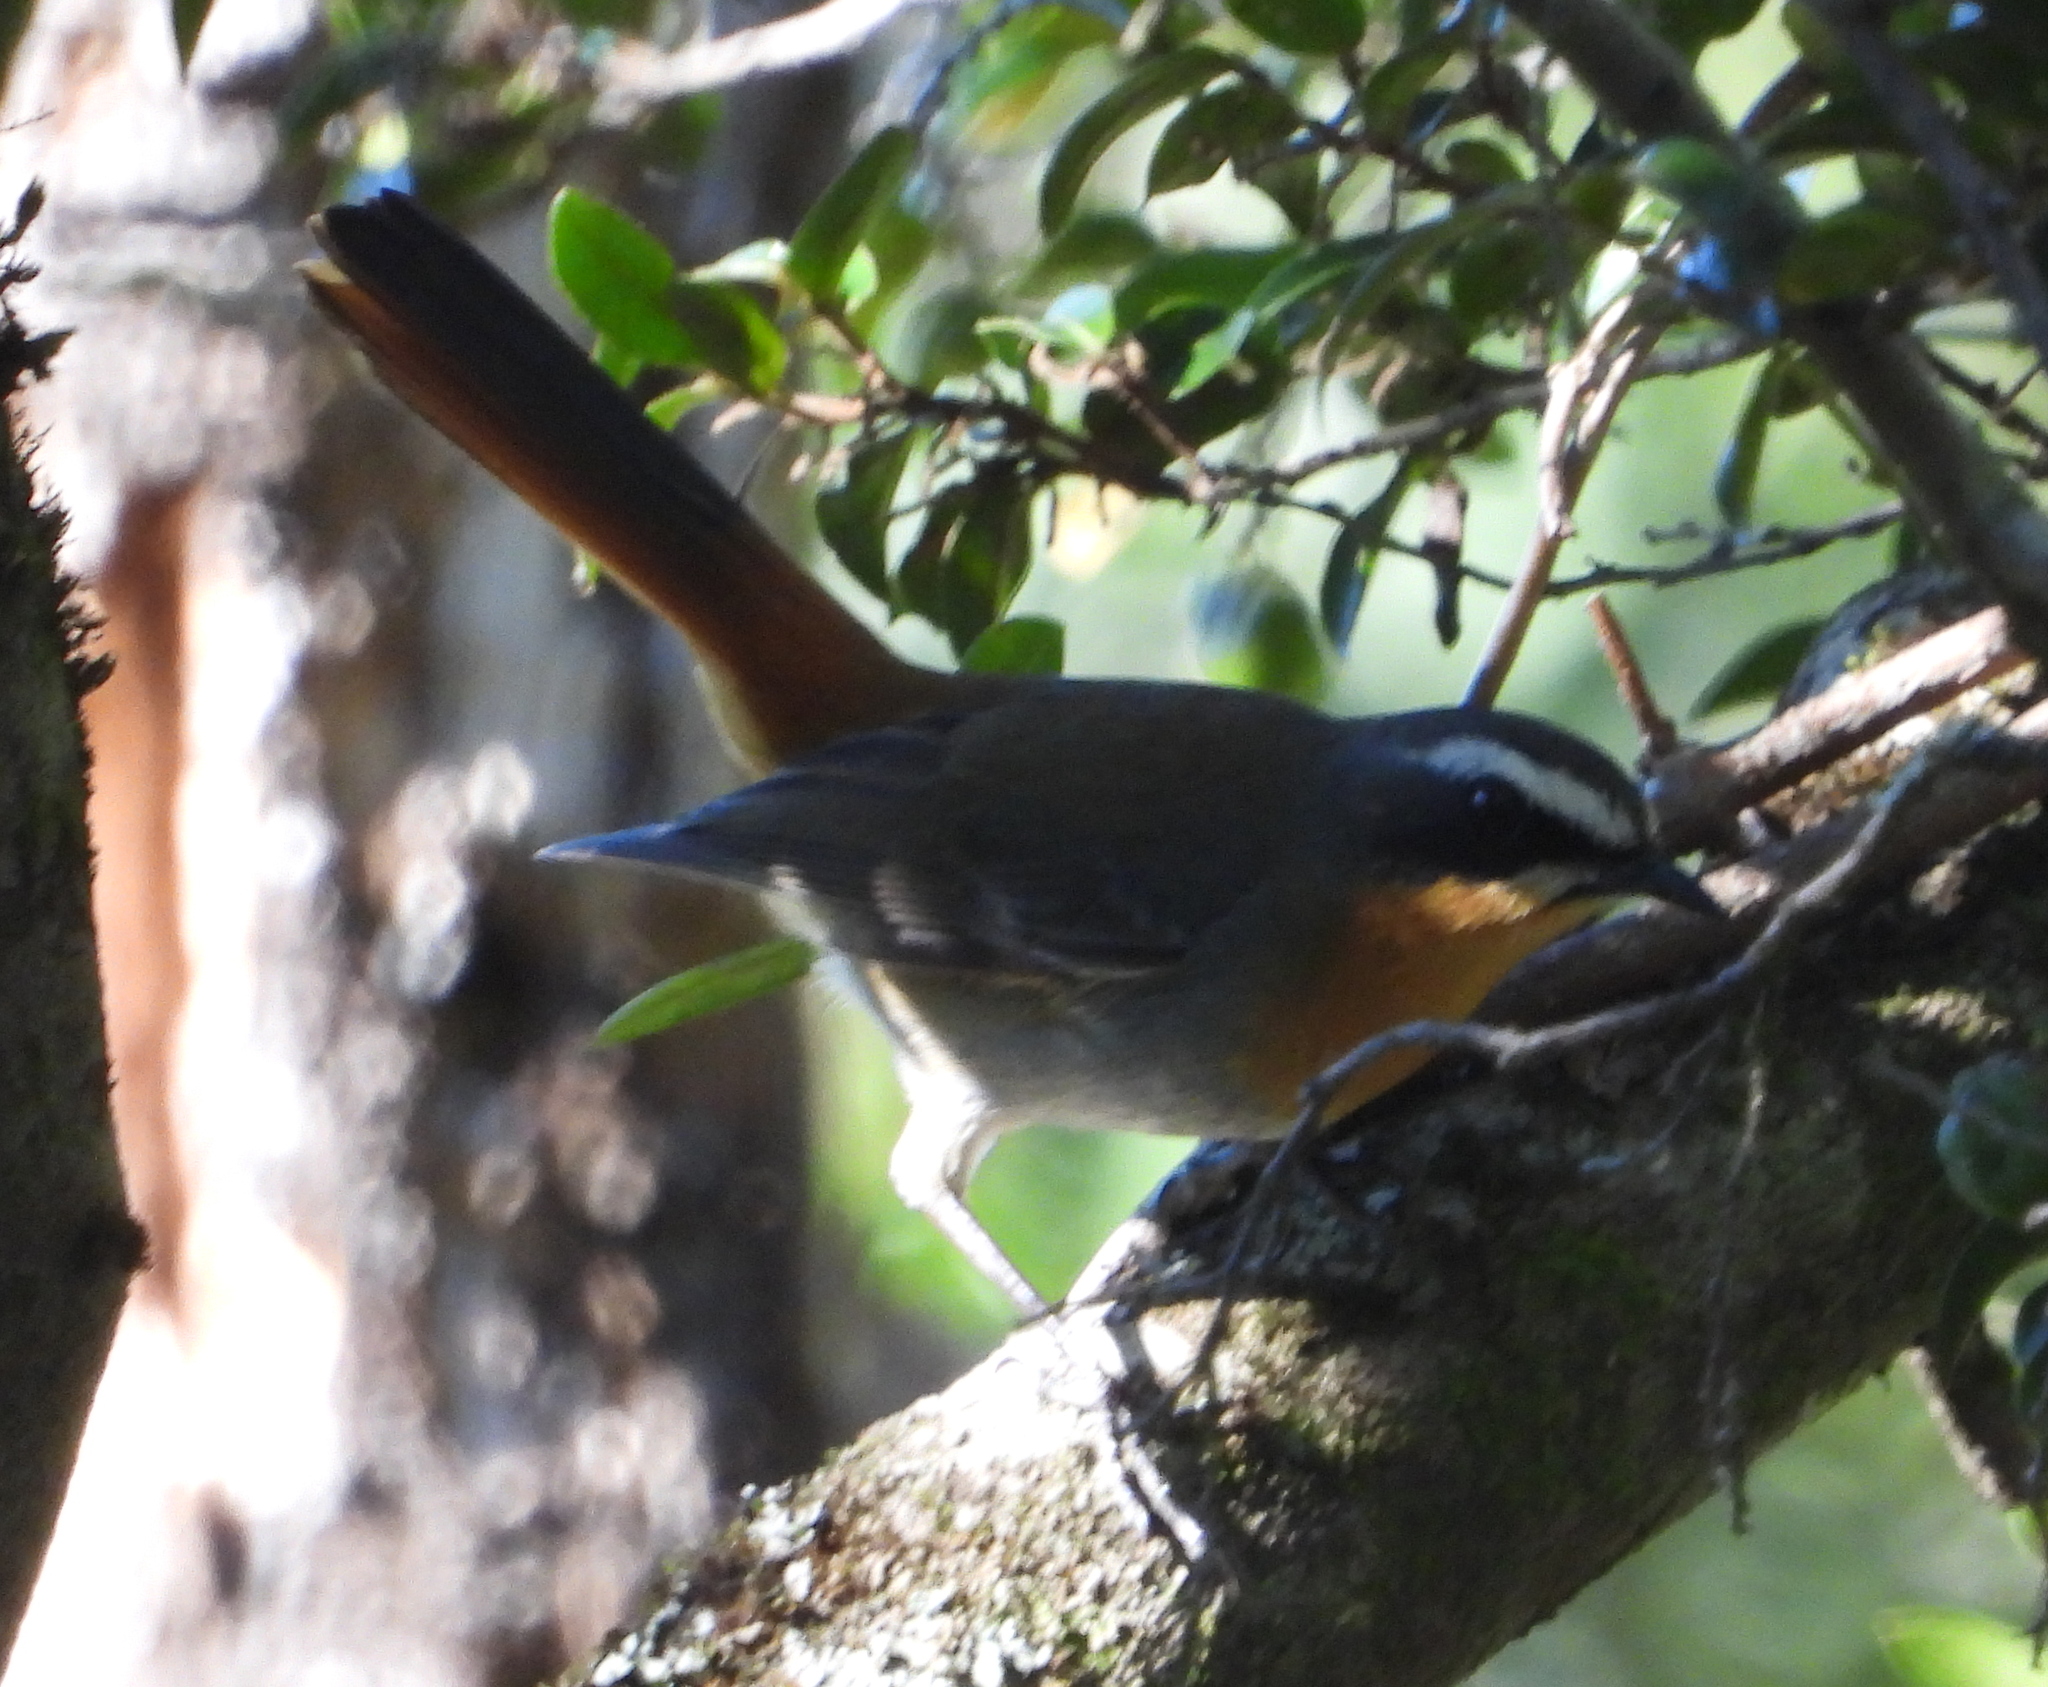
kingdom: Animalia
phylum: Chordata
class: Aves
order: Passeriformes
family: Muscicapidae
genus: Cossypha
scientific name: Cossypha caffra
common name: Cape robin-chat
